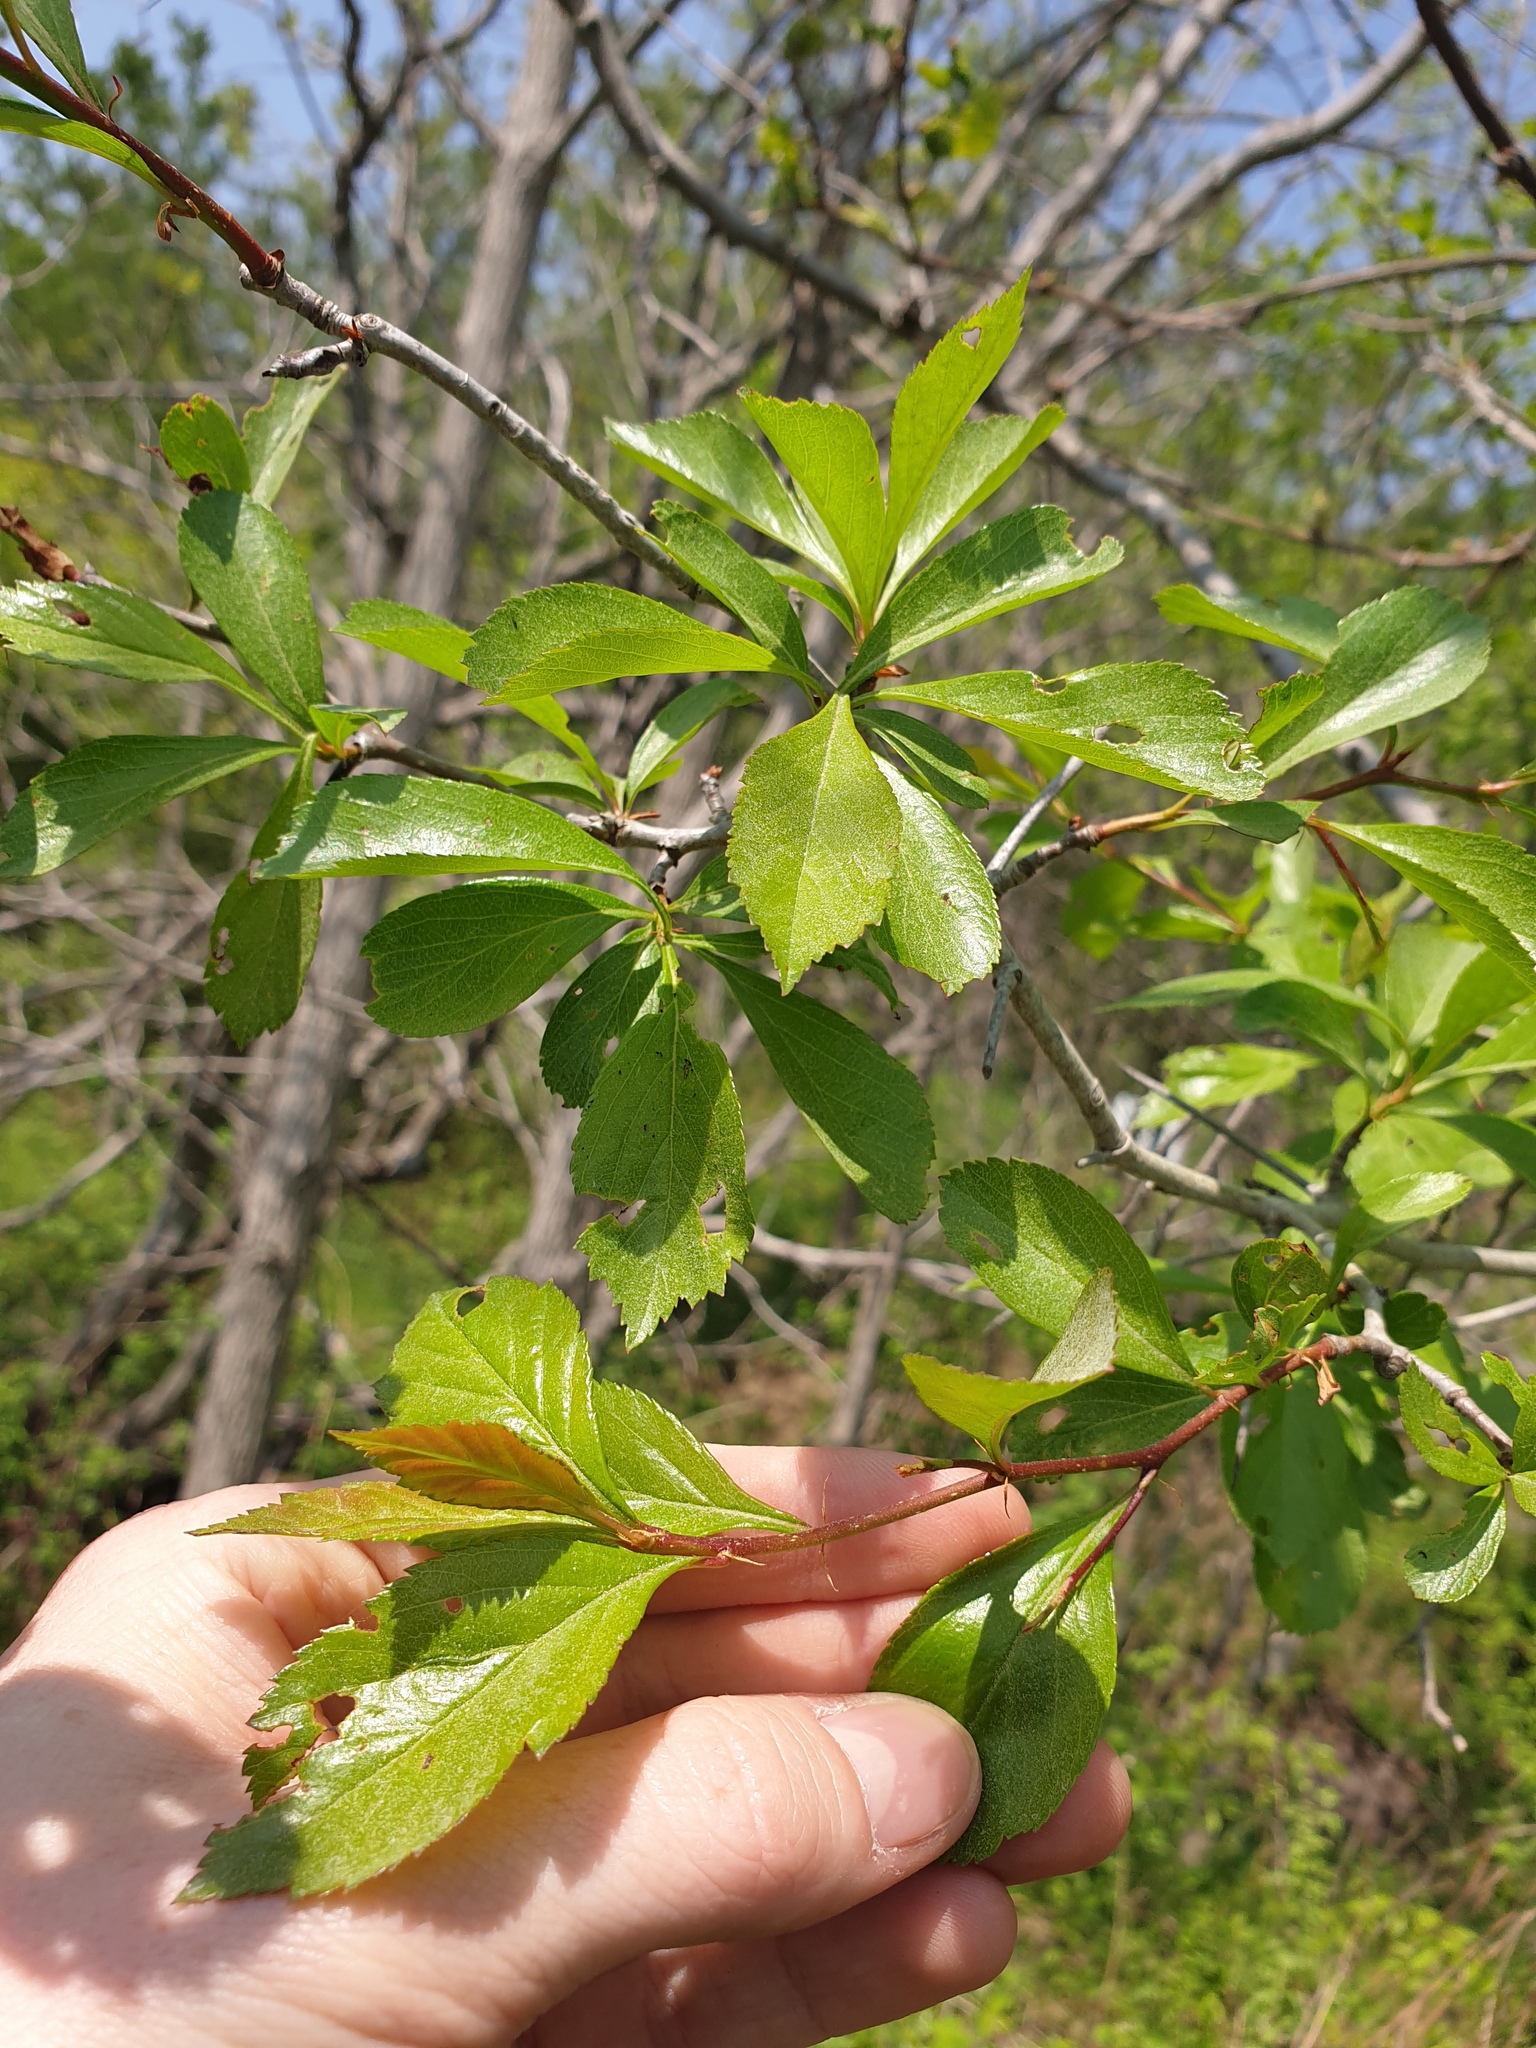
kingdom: Plantae
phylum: Tracheophyta
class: Magnoliopsida
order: Rosales
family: Rosaceae
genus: Crataegus
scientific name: Crataegus crus-galli
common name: Cockspurthorn
